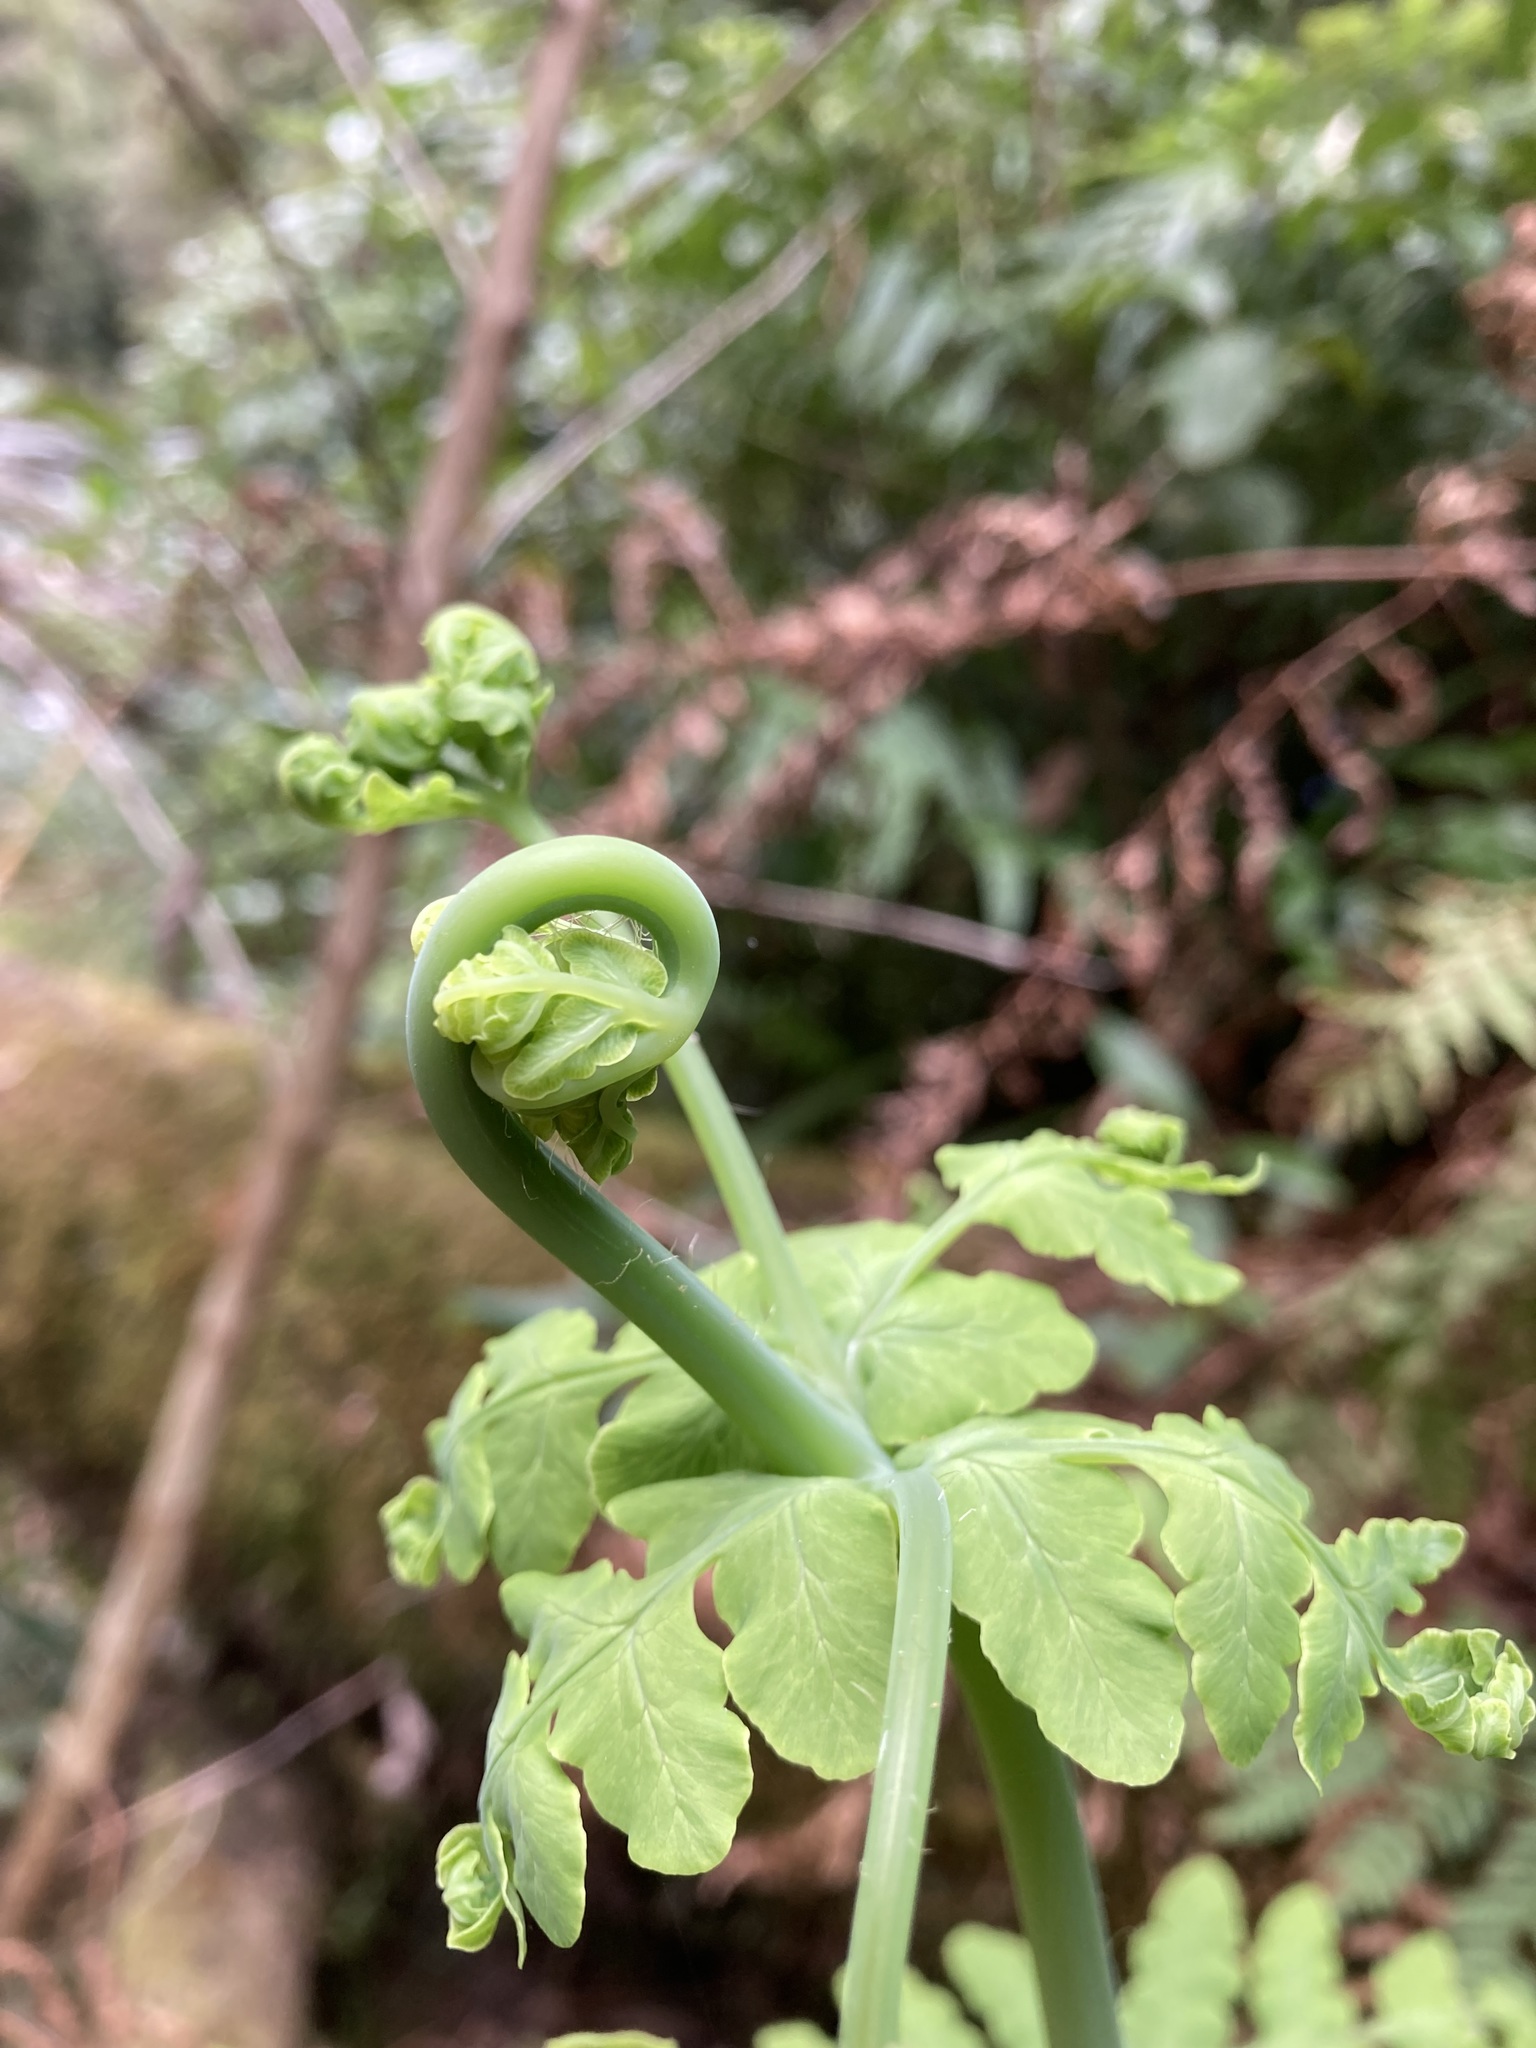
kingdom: Plantae
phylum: Tracheophyta
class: Polypodiopsida
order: Polypodiales
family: Dennstaedtiaceae
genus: Histiopteris
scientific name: Histiopteris incisa
